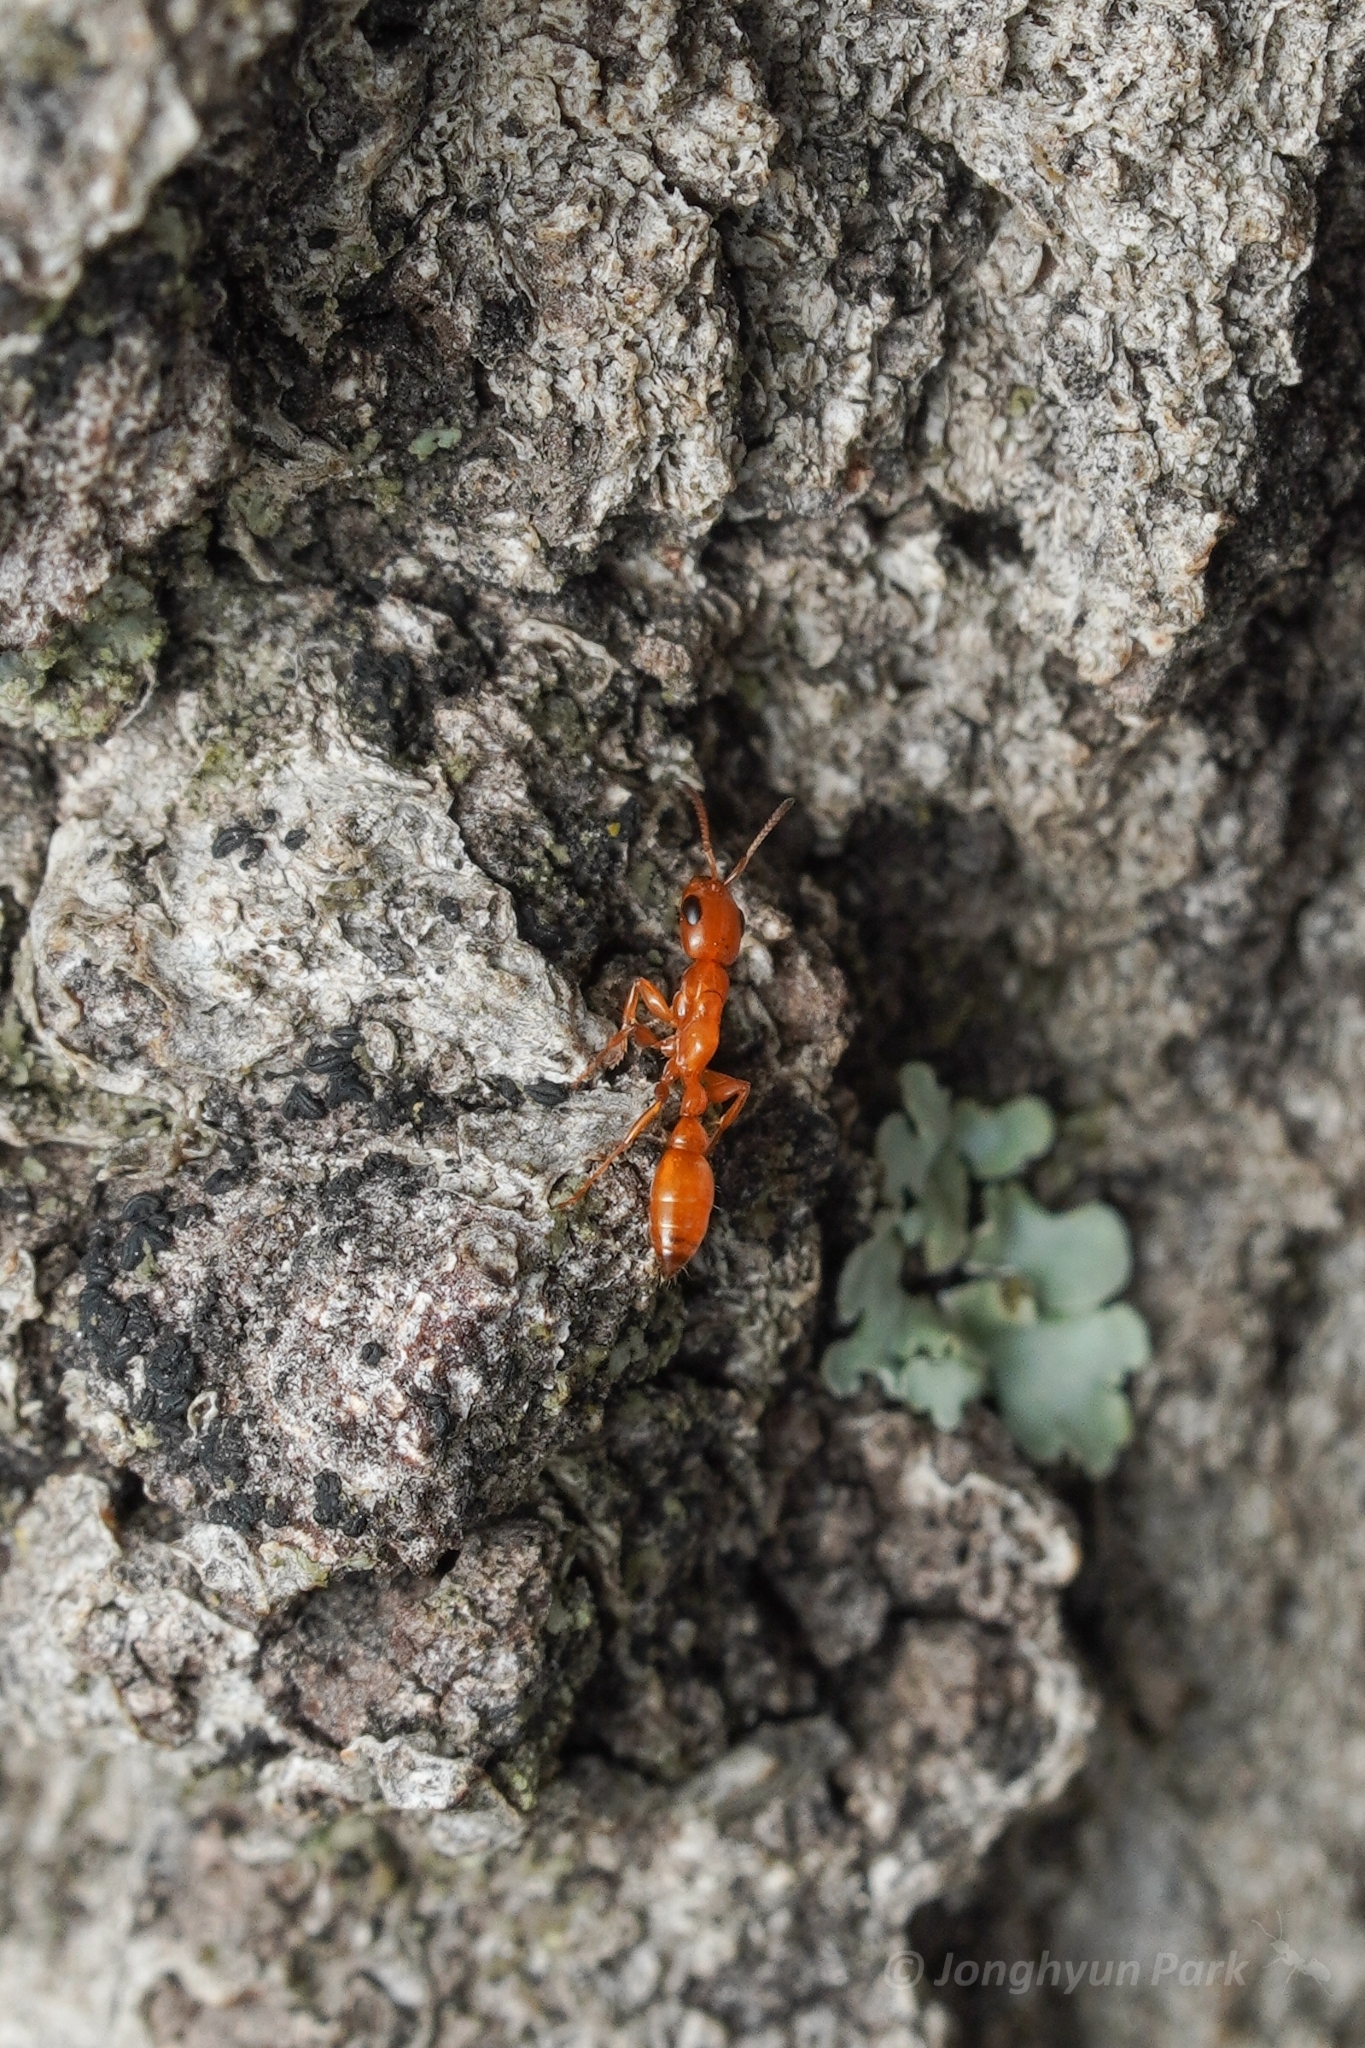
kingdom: Animalia
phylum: Arthropoda
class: Insecta
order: Hymenoptera
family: Formicidae
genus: Pseudomyrmex
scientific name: Pseudomyrmex apache
